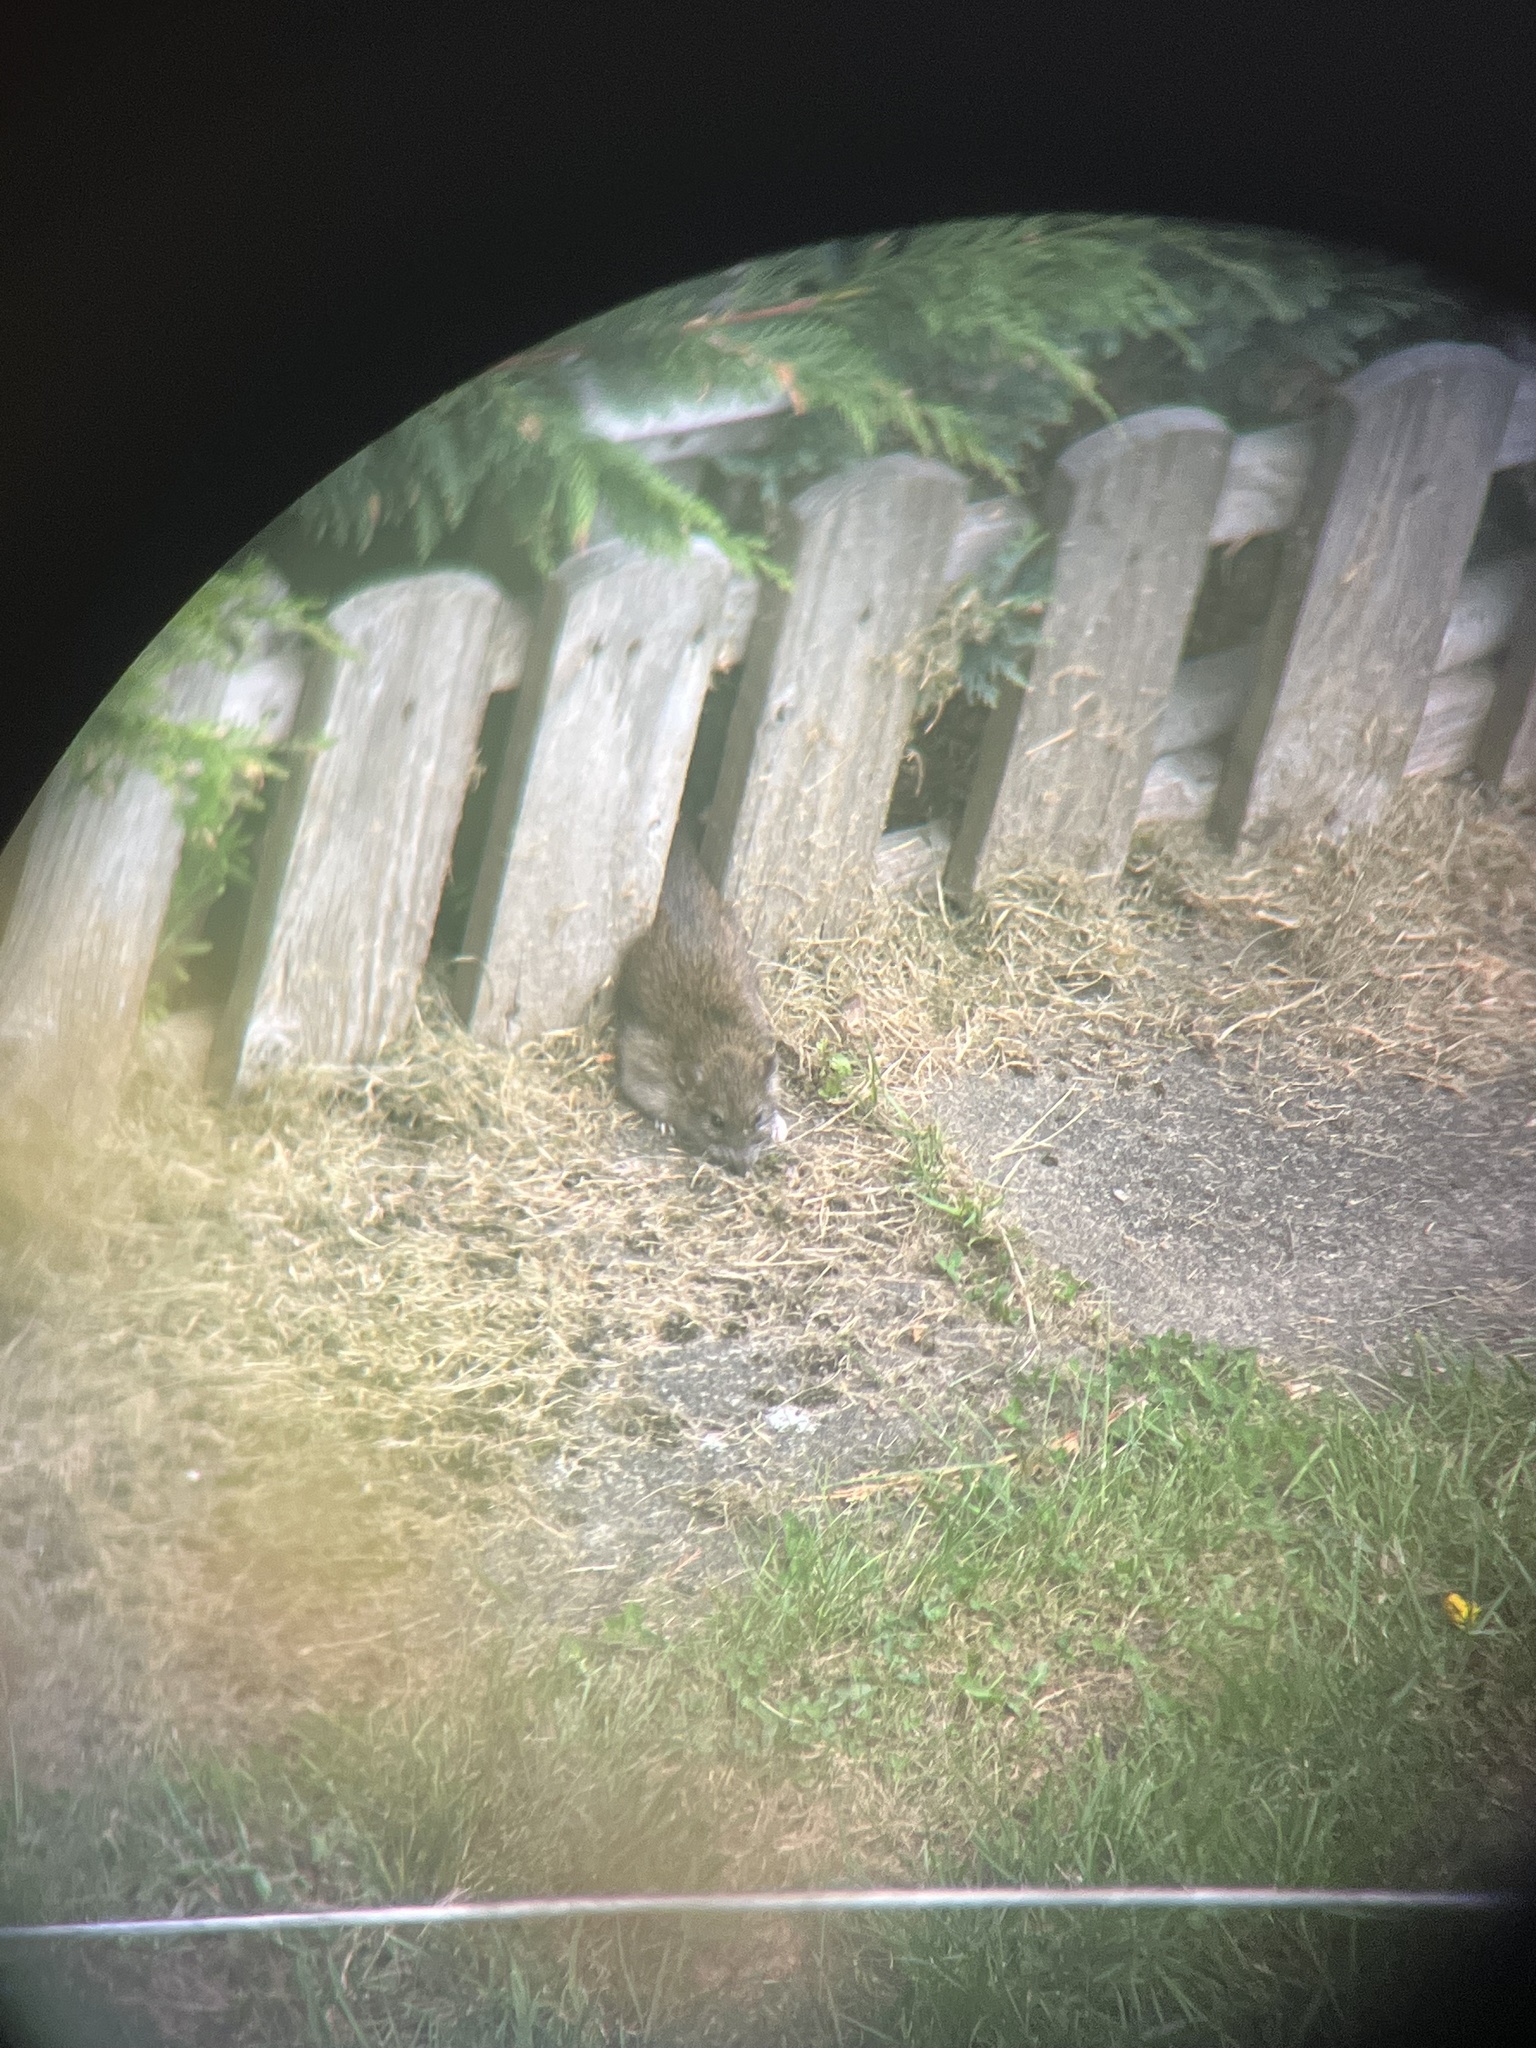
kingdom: Animalia
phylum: Chordata
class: Mammalia
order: Rodentia
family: Muridae
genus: Rattus
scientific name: Rattus norvegicus
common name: Brown rat
